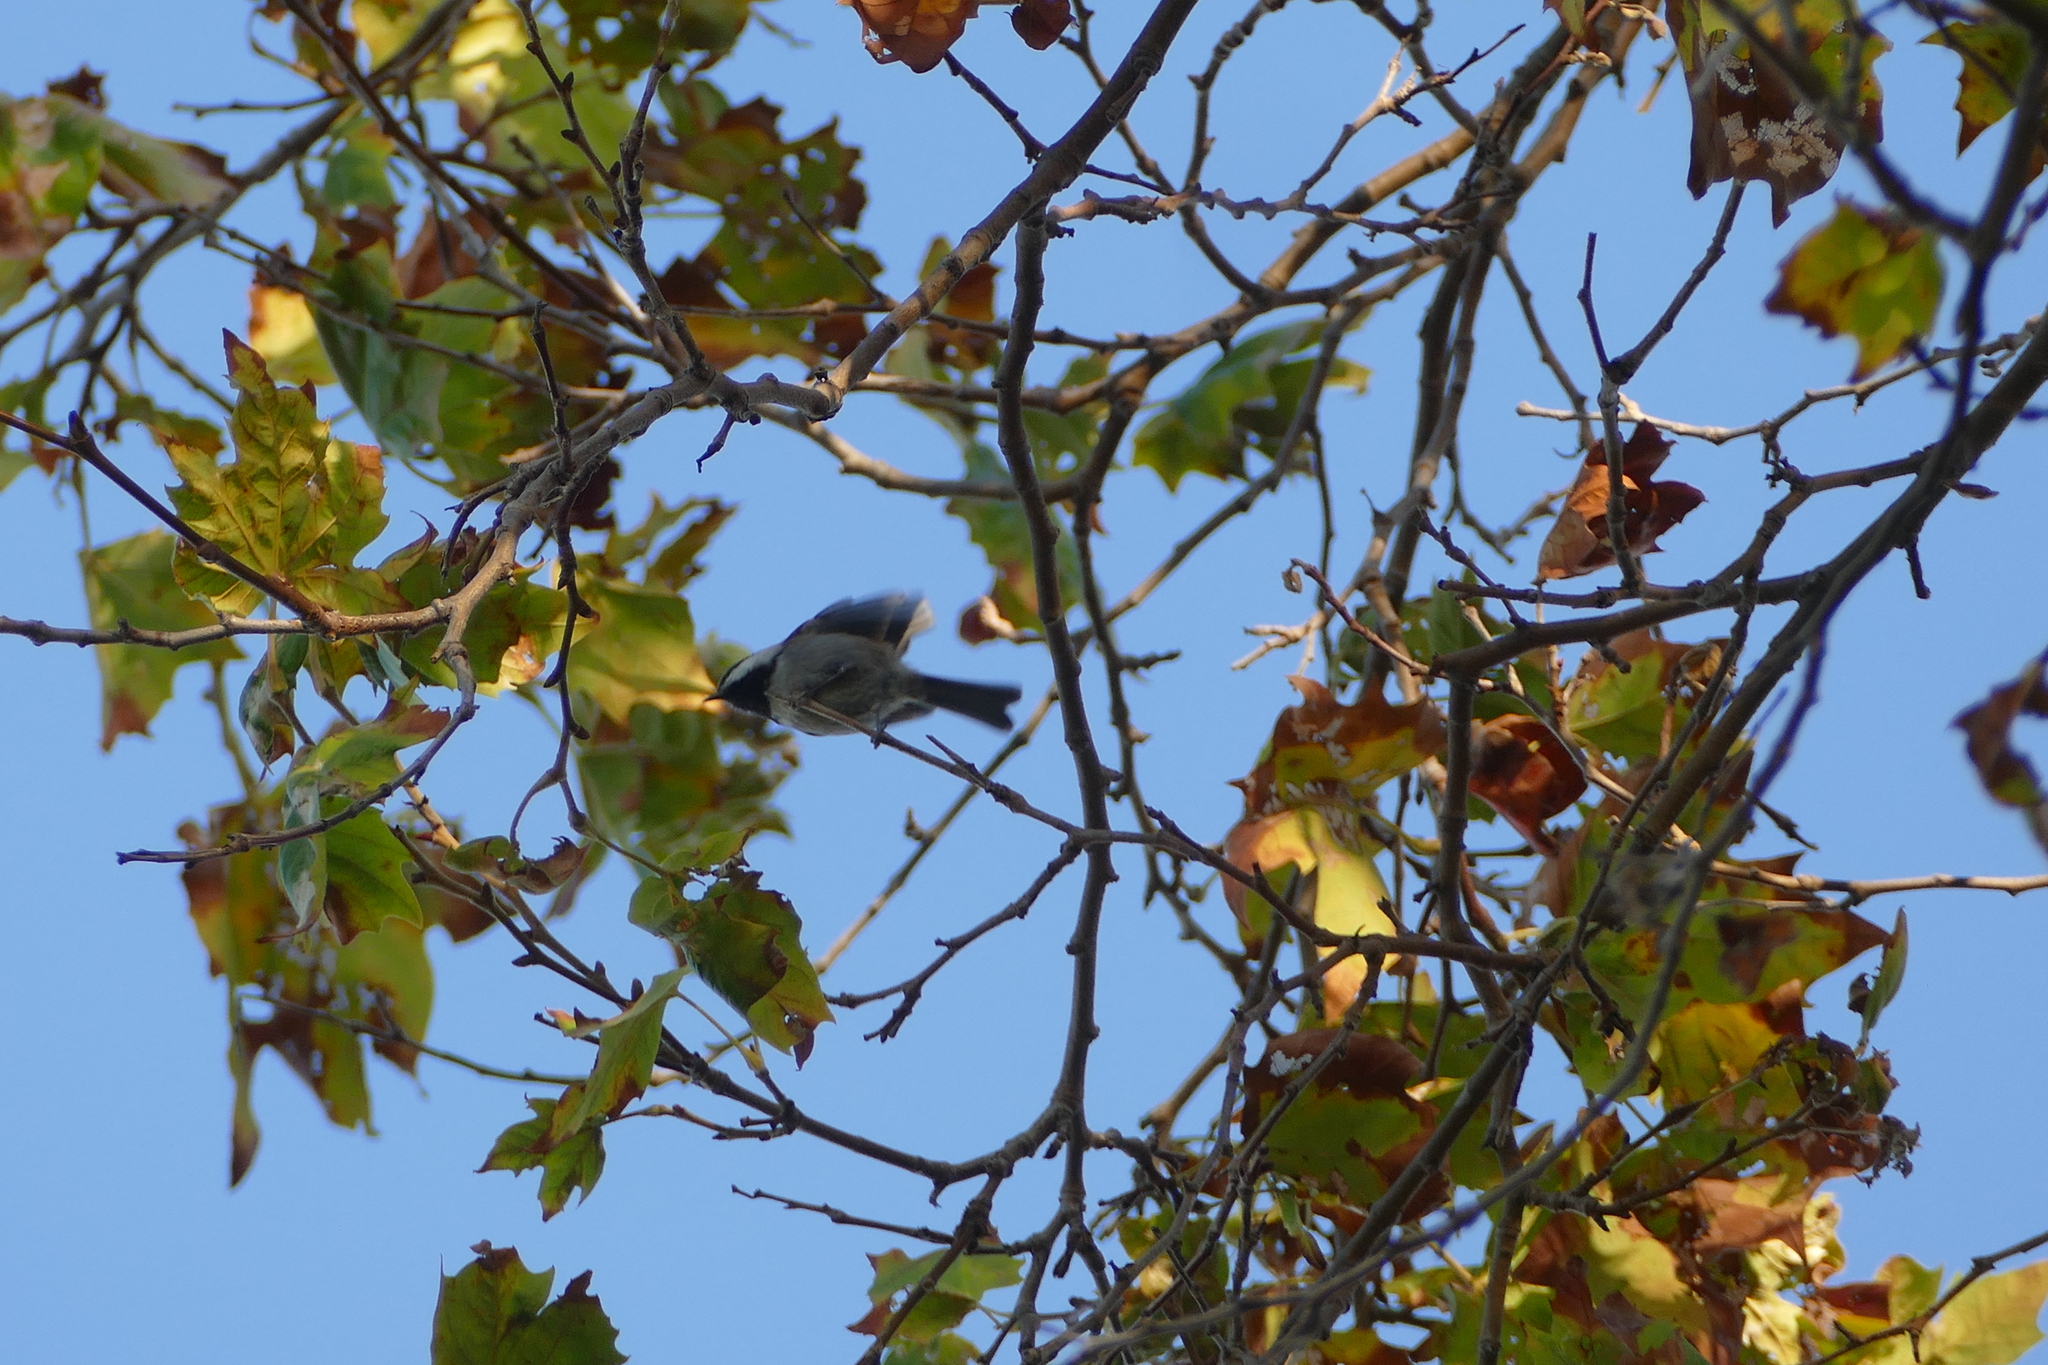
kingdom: Animalia
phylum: Chordata
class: Aves
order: Passeriformes
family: Paridae
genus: Poecile
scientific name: Poecile rufescens
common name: Chestnut-backed chickadee
